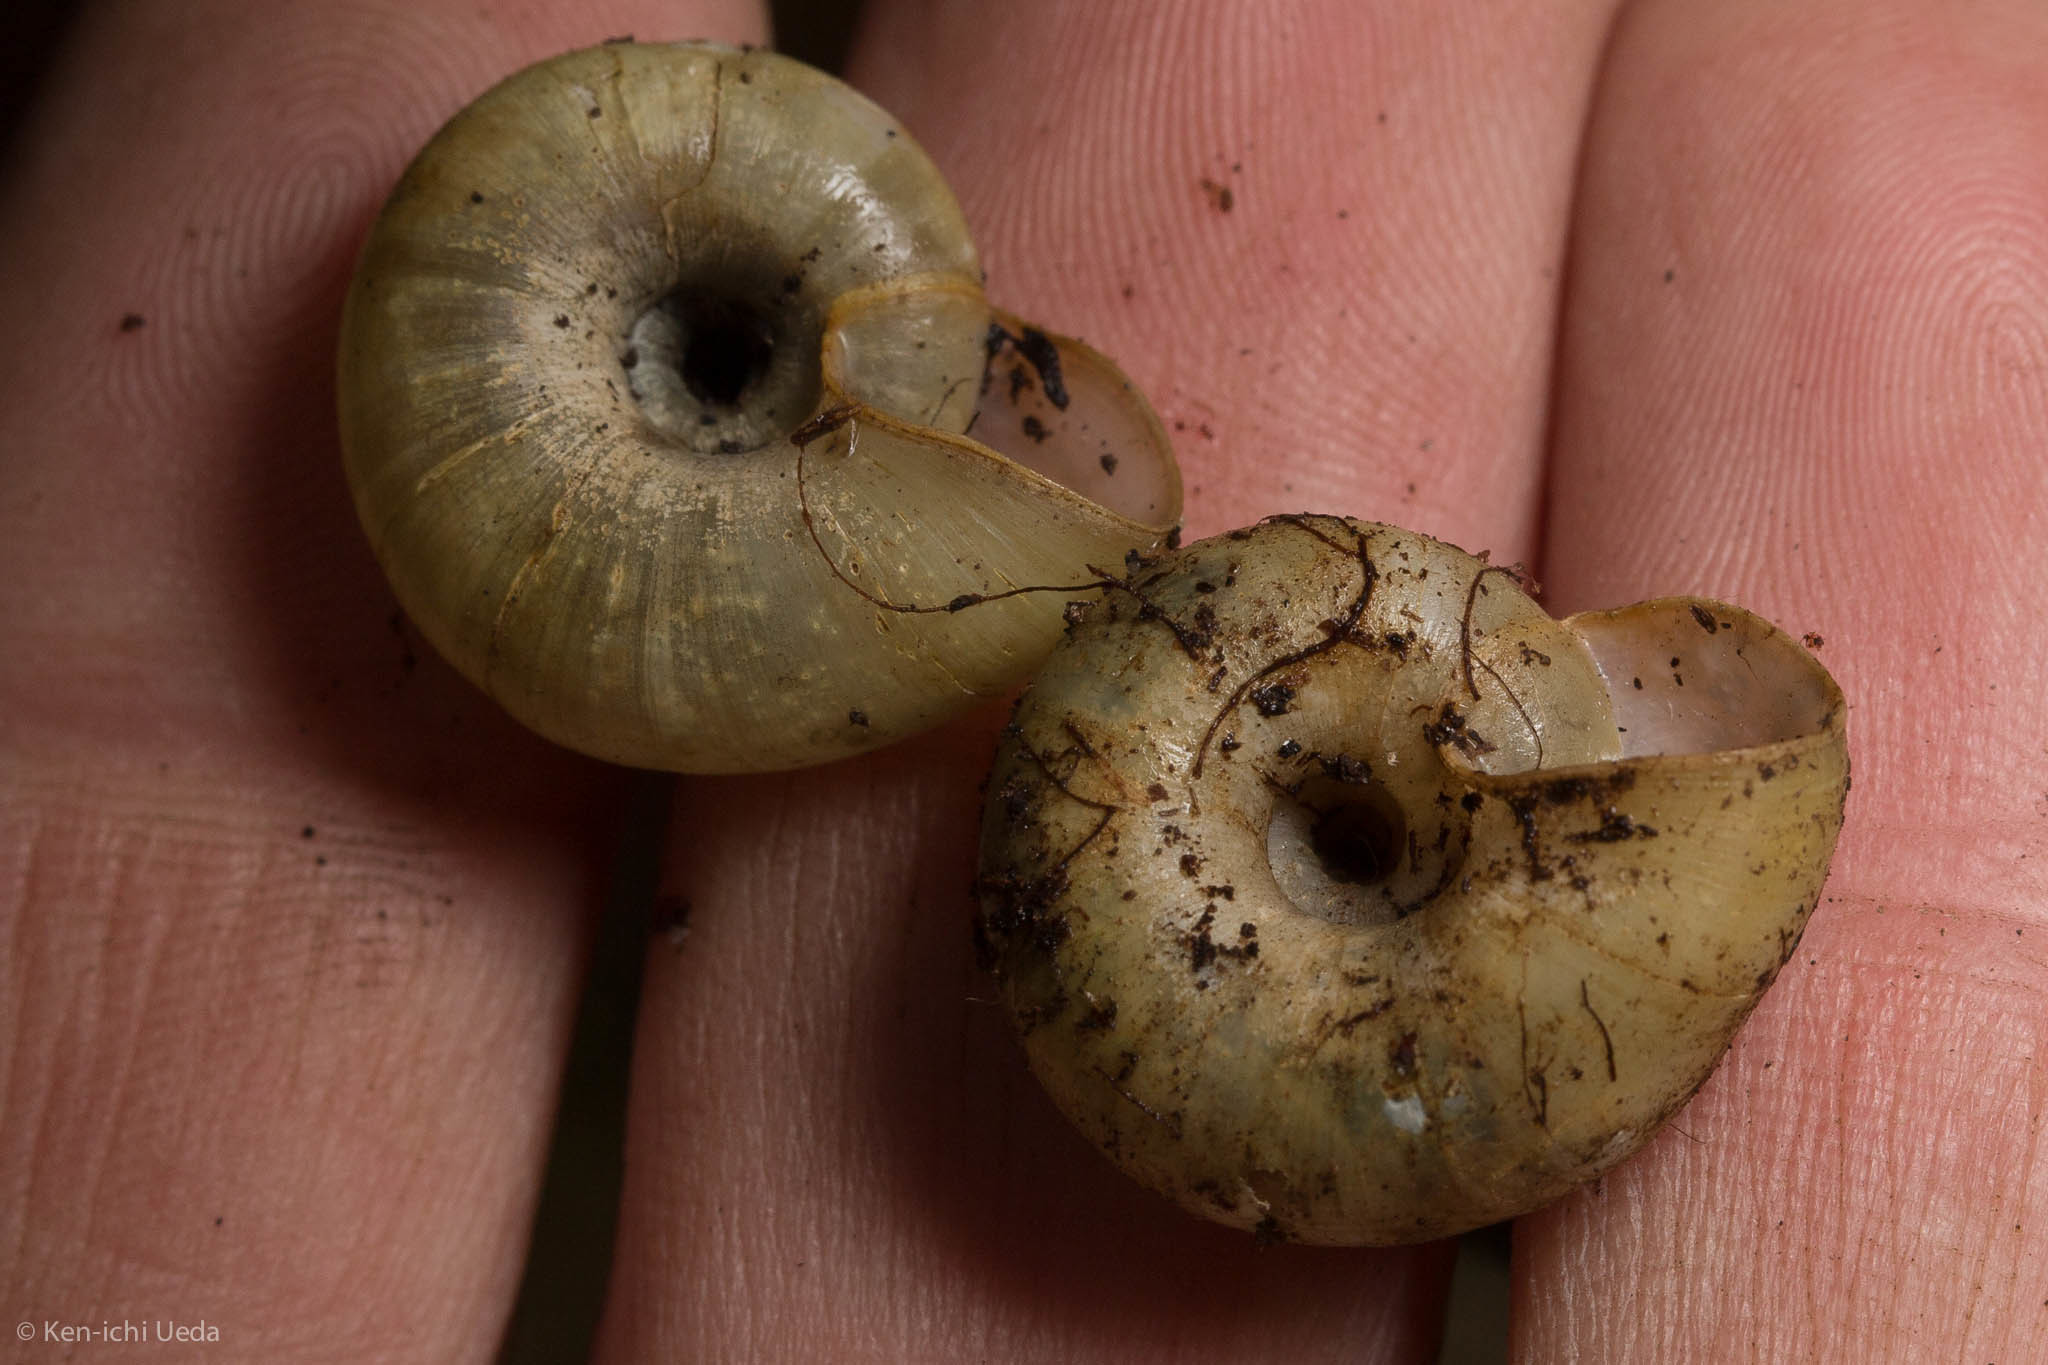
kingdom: Animalia
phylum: Mollusca
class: Gastropoda
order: Stylommatophora
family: Haplotrematidae
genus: Haplotrema
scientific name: Haplotrema minimum
